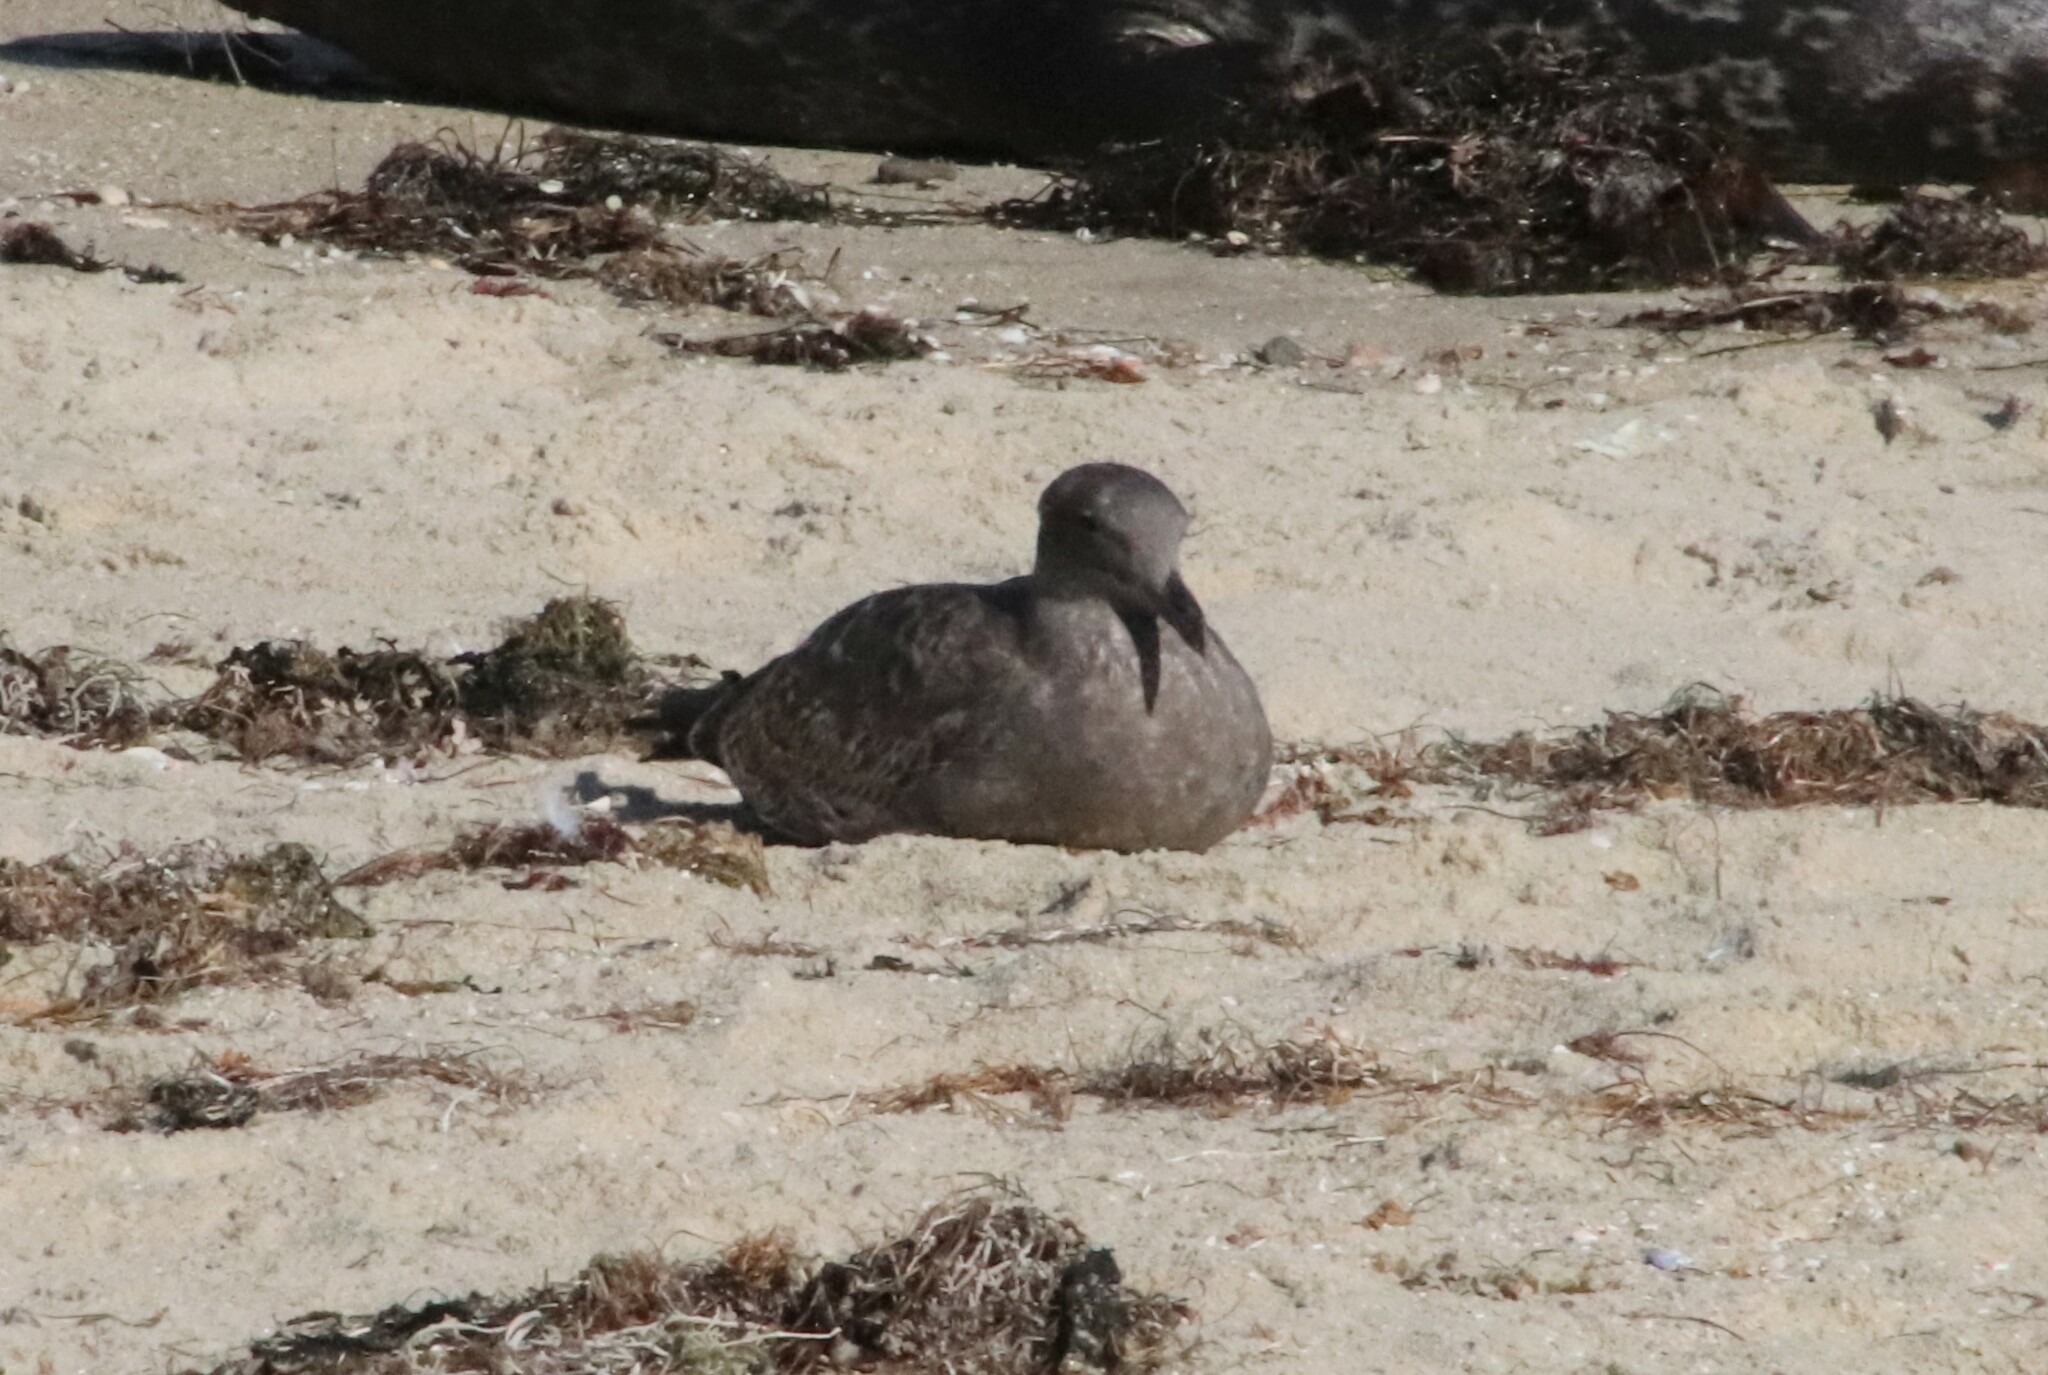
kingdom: Animalia
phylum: Chordata
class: Aves
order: Charadriiformes
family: Laridae
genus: Larus
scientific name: Larus occidentalis
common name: Western gull
